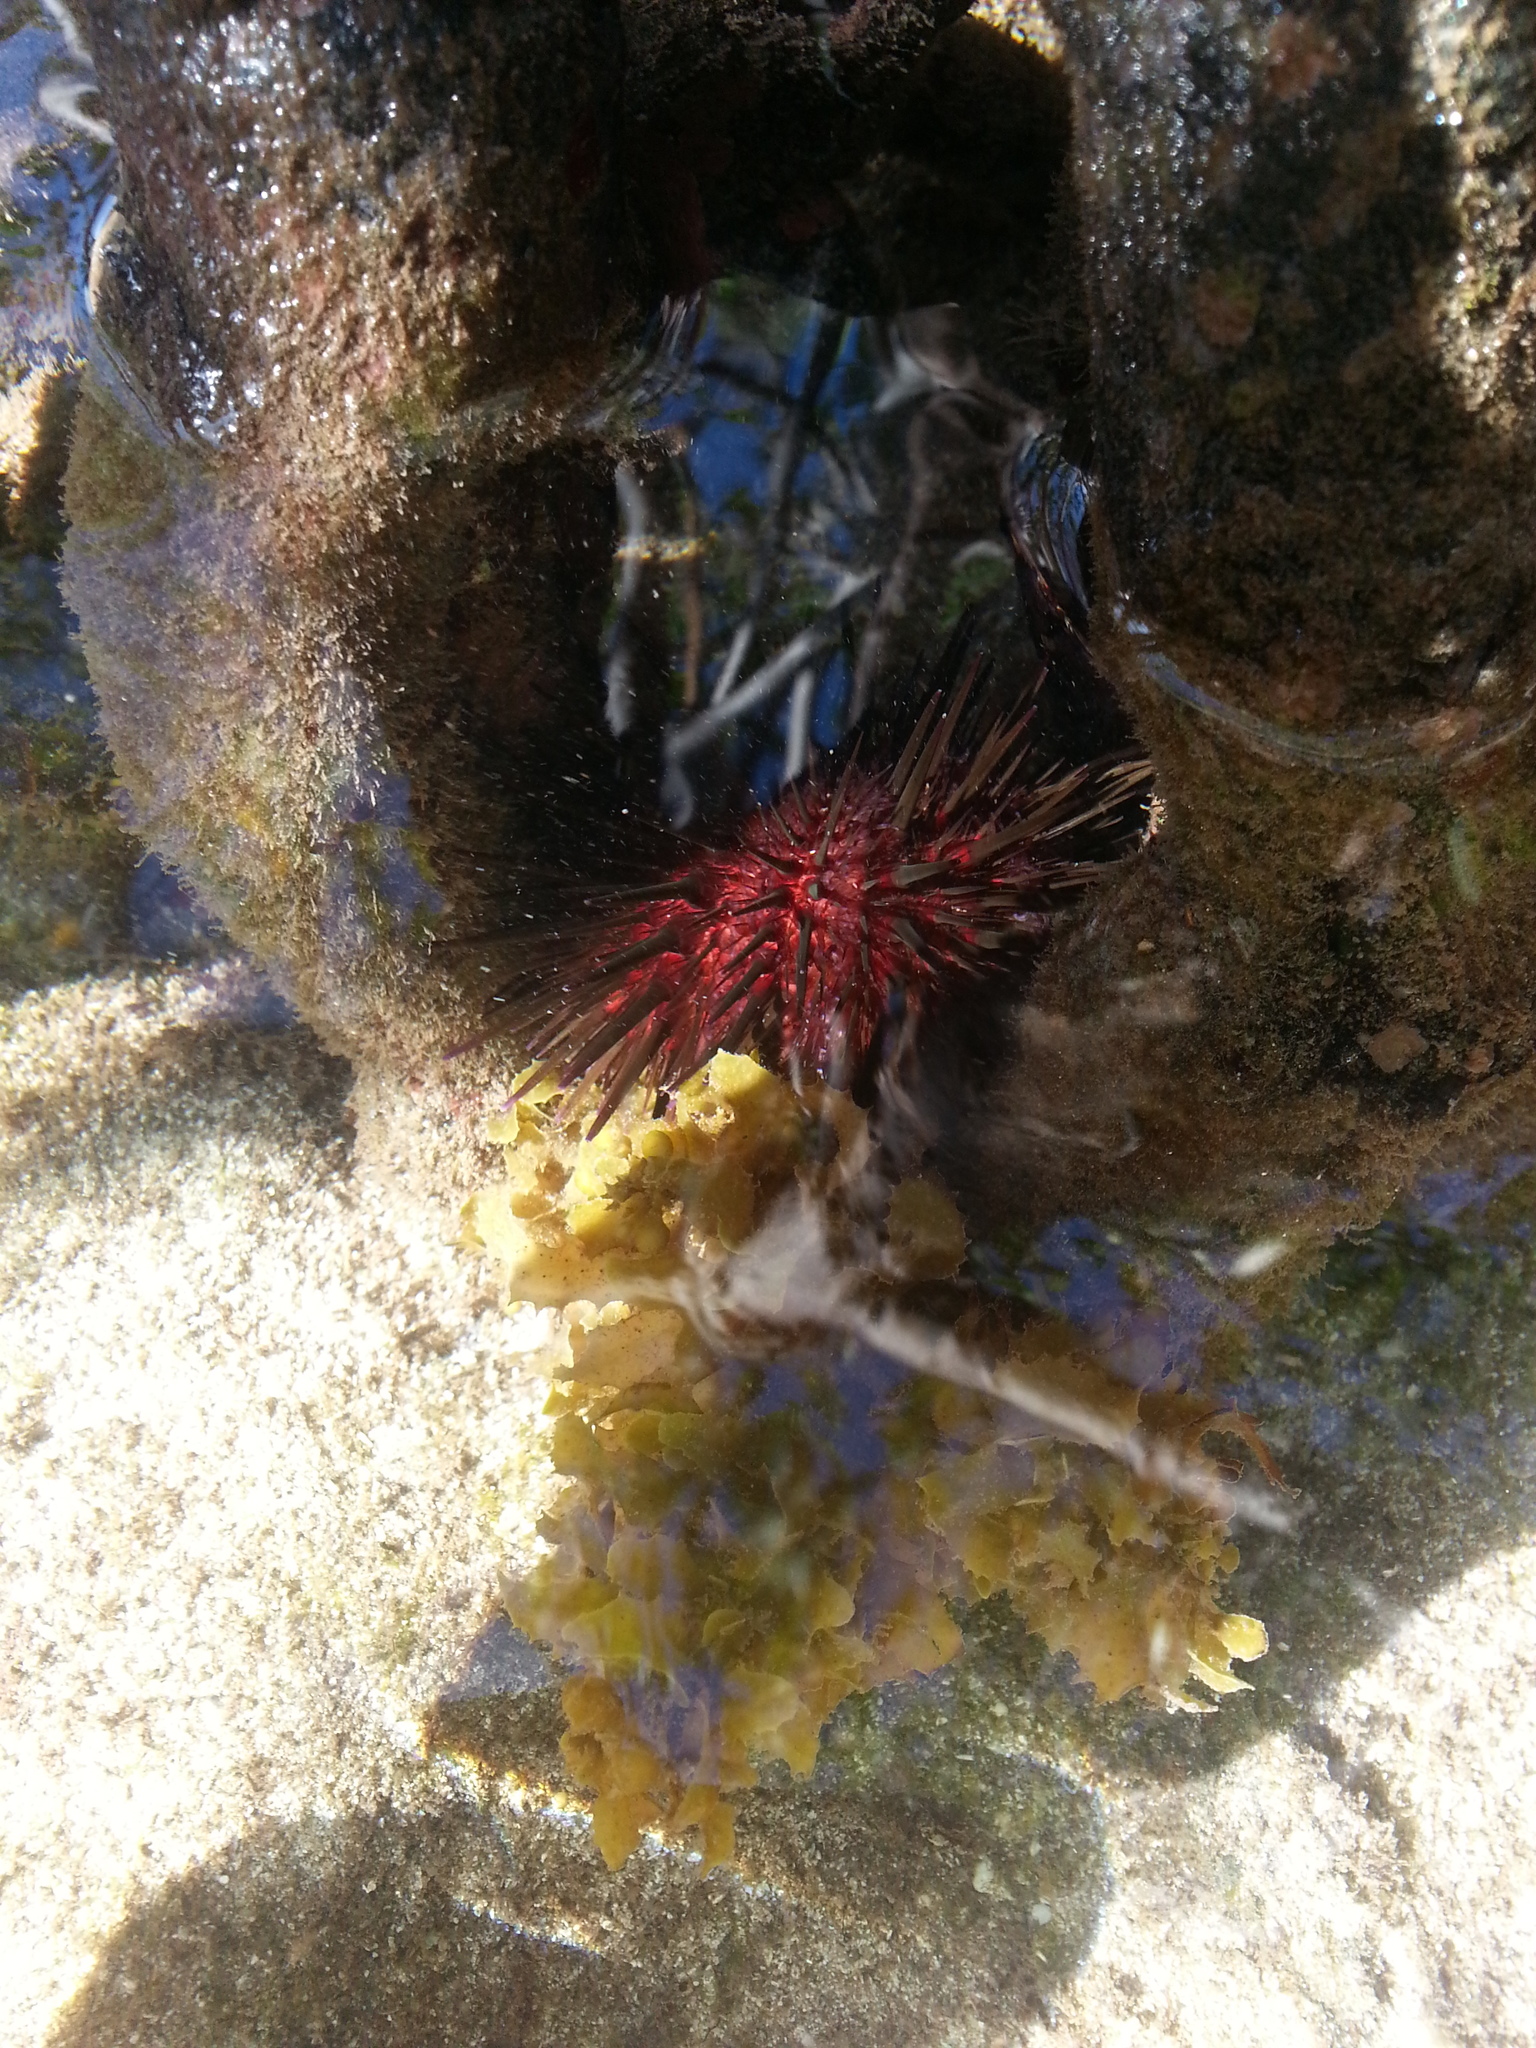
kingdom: Animalia
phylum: Echinodermata
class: Echinoidea
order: Camarodonta
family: Echinometridae
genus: Echinometra
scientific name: Echinometra lucunter
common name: Rock urchin
